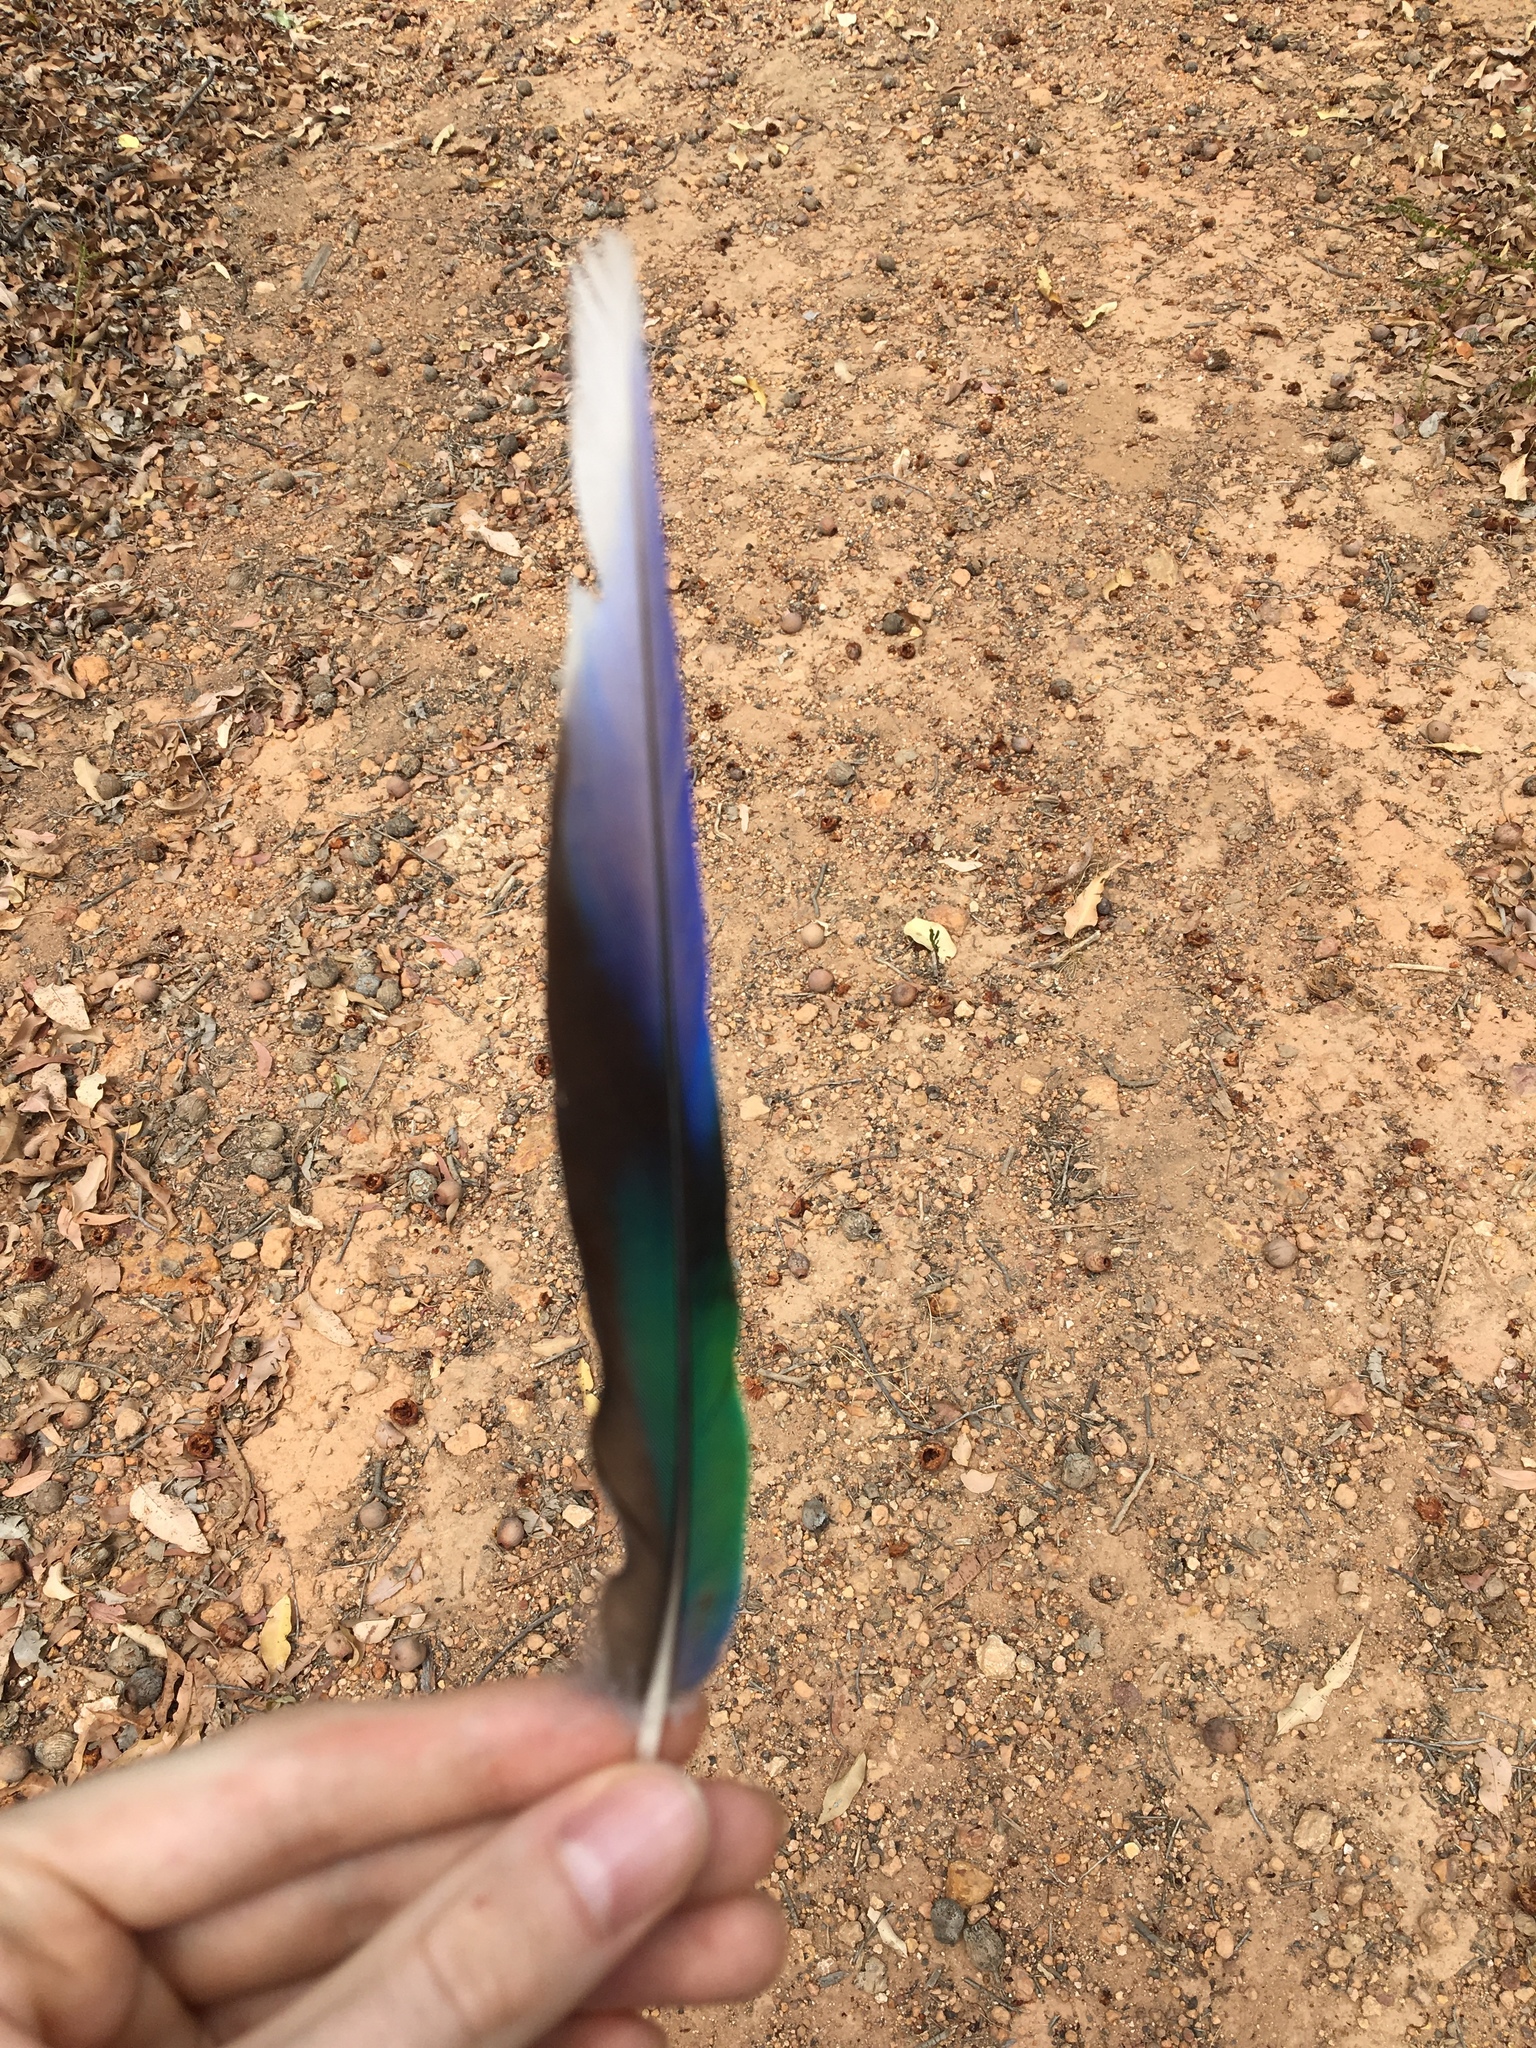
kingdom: Animalia
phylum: Chordata
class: Aves
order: Psittaciformes
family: Psittacidae
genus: Barnardius
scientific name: Barnardius zonarius
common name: Australian ringneck
